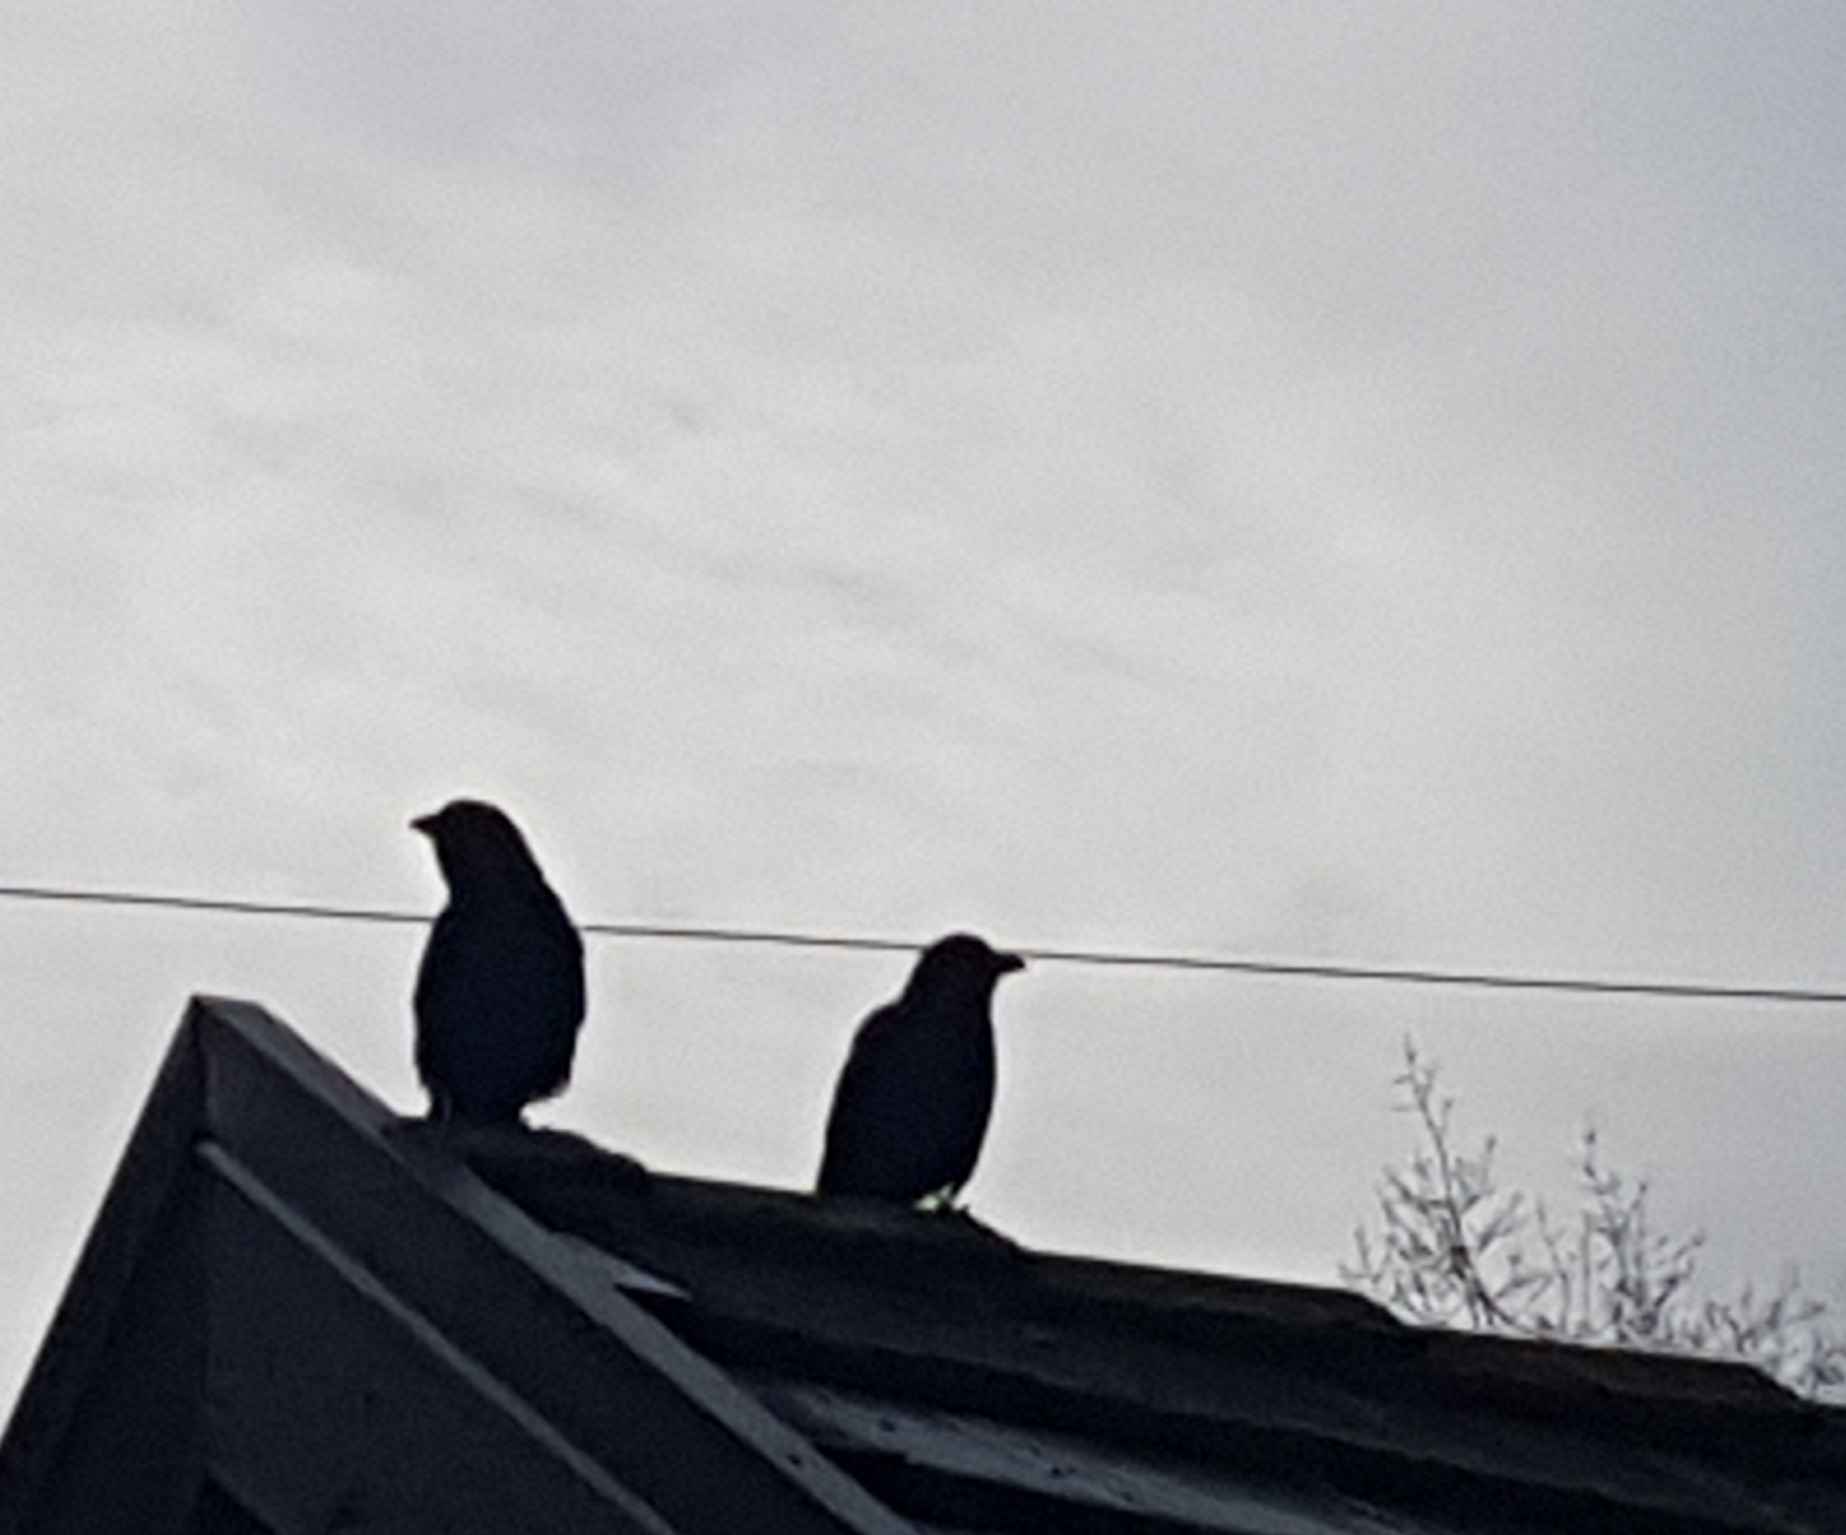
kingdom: Animalia
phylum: Chordata
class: Aves
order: Passeriformes
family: Corvidae
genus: Corvus
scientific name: Corvus brachyrhynchos
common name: American crow
